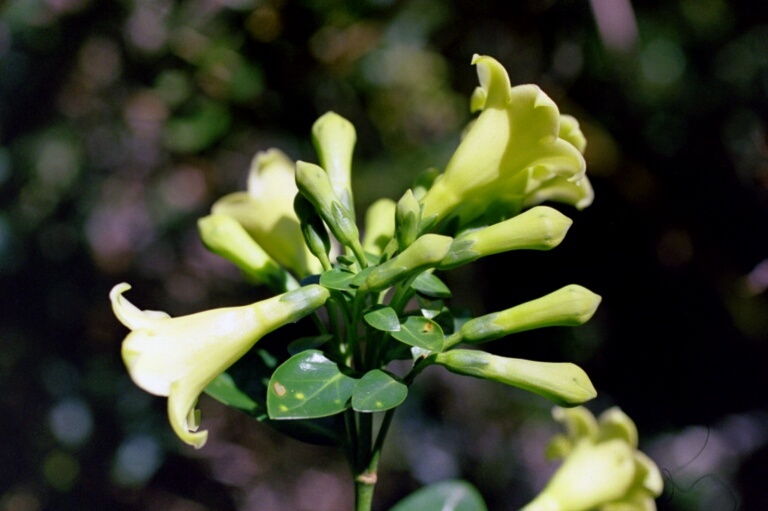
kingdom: Plantae
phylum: Tracheophyta
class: Magnoliopsida
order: Gentianales
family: Gentianaceae
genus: Macrocarpaea
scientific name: Macrocarpaea glabra
